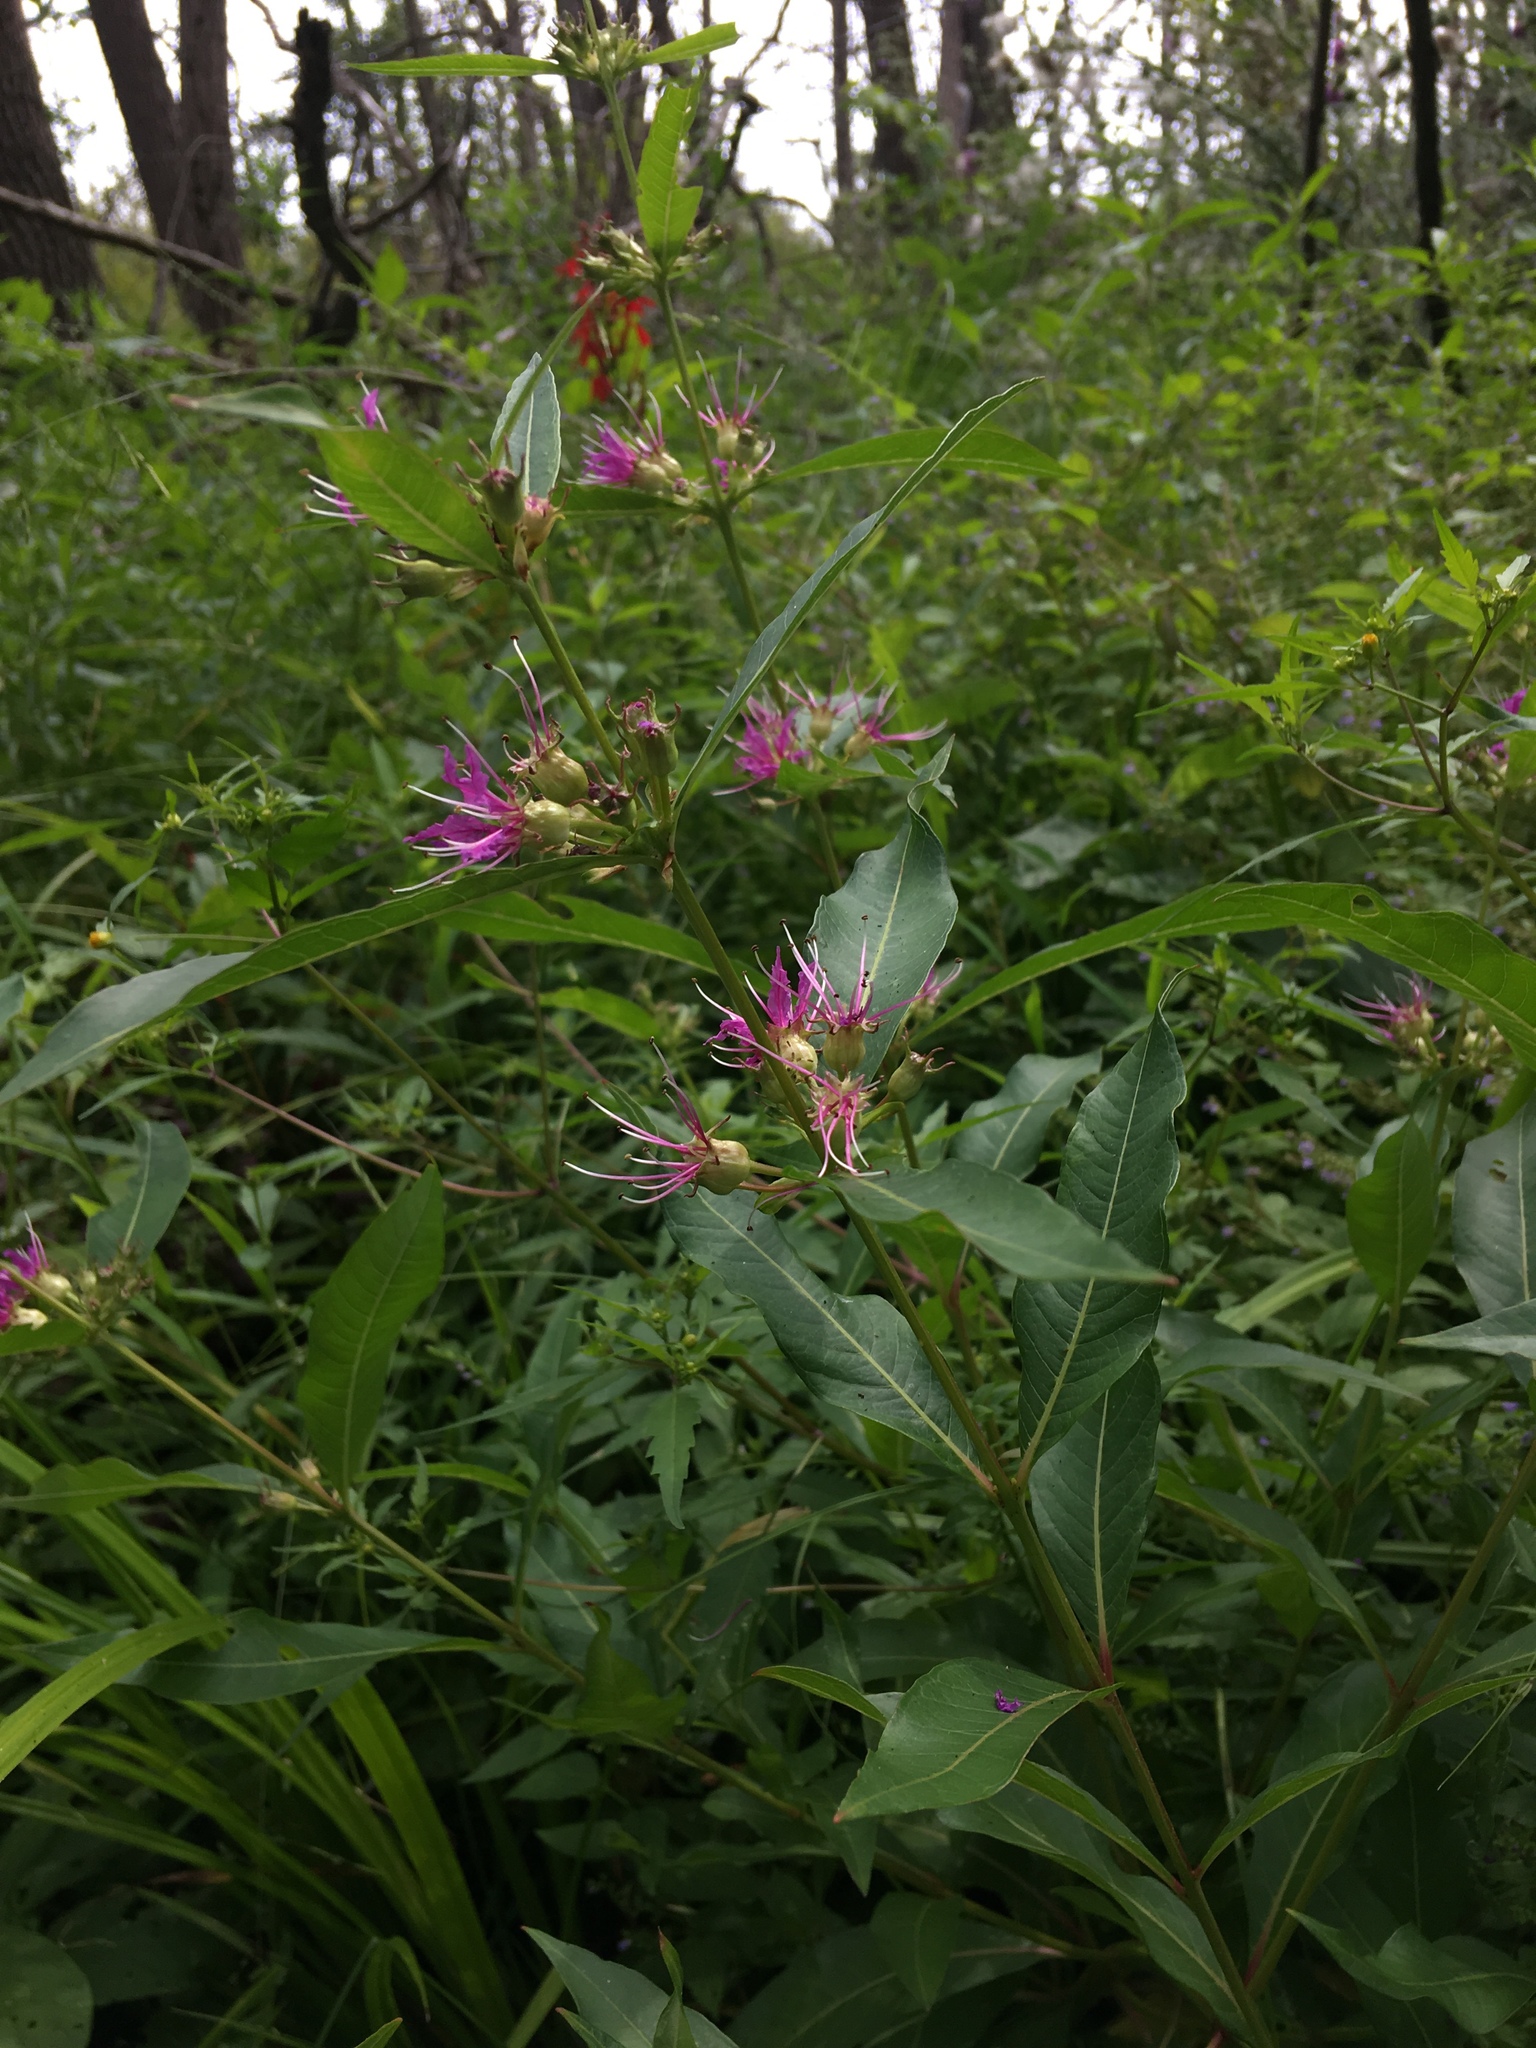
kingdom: Plantae
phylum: Tracheophyta
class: Magnoliopsida
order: Myrtales
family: Lythraceae
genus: Decodon
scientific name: Decodon verticillatus
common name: Hairy swamp loosestrife
